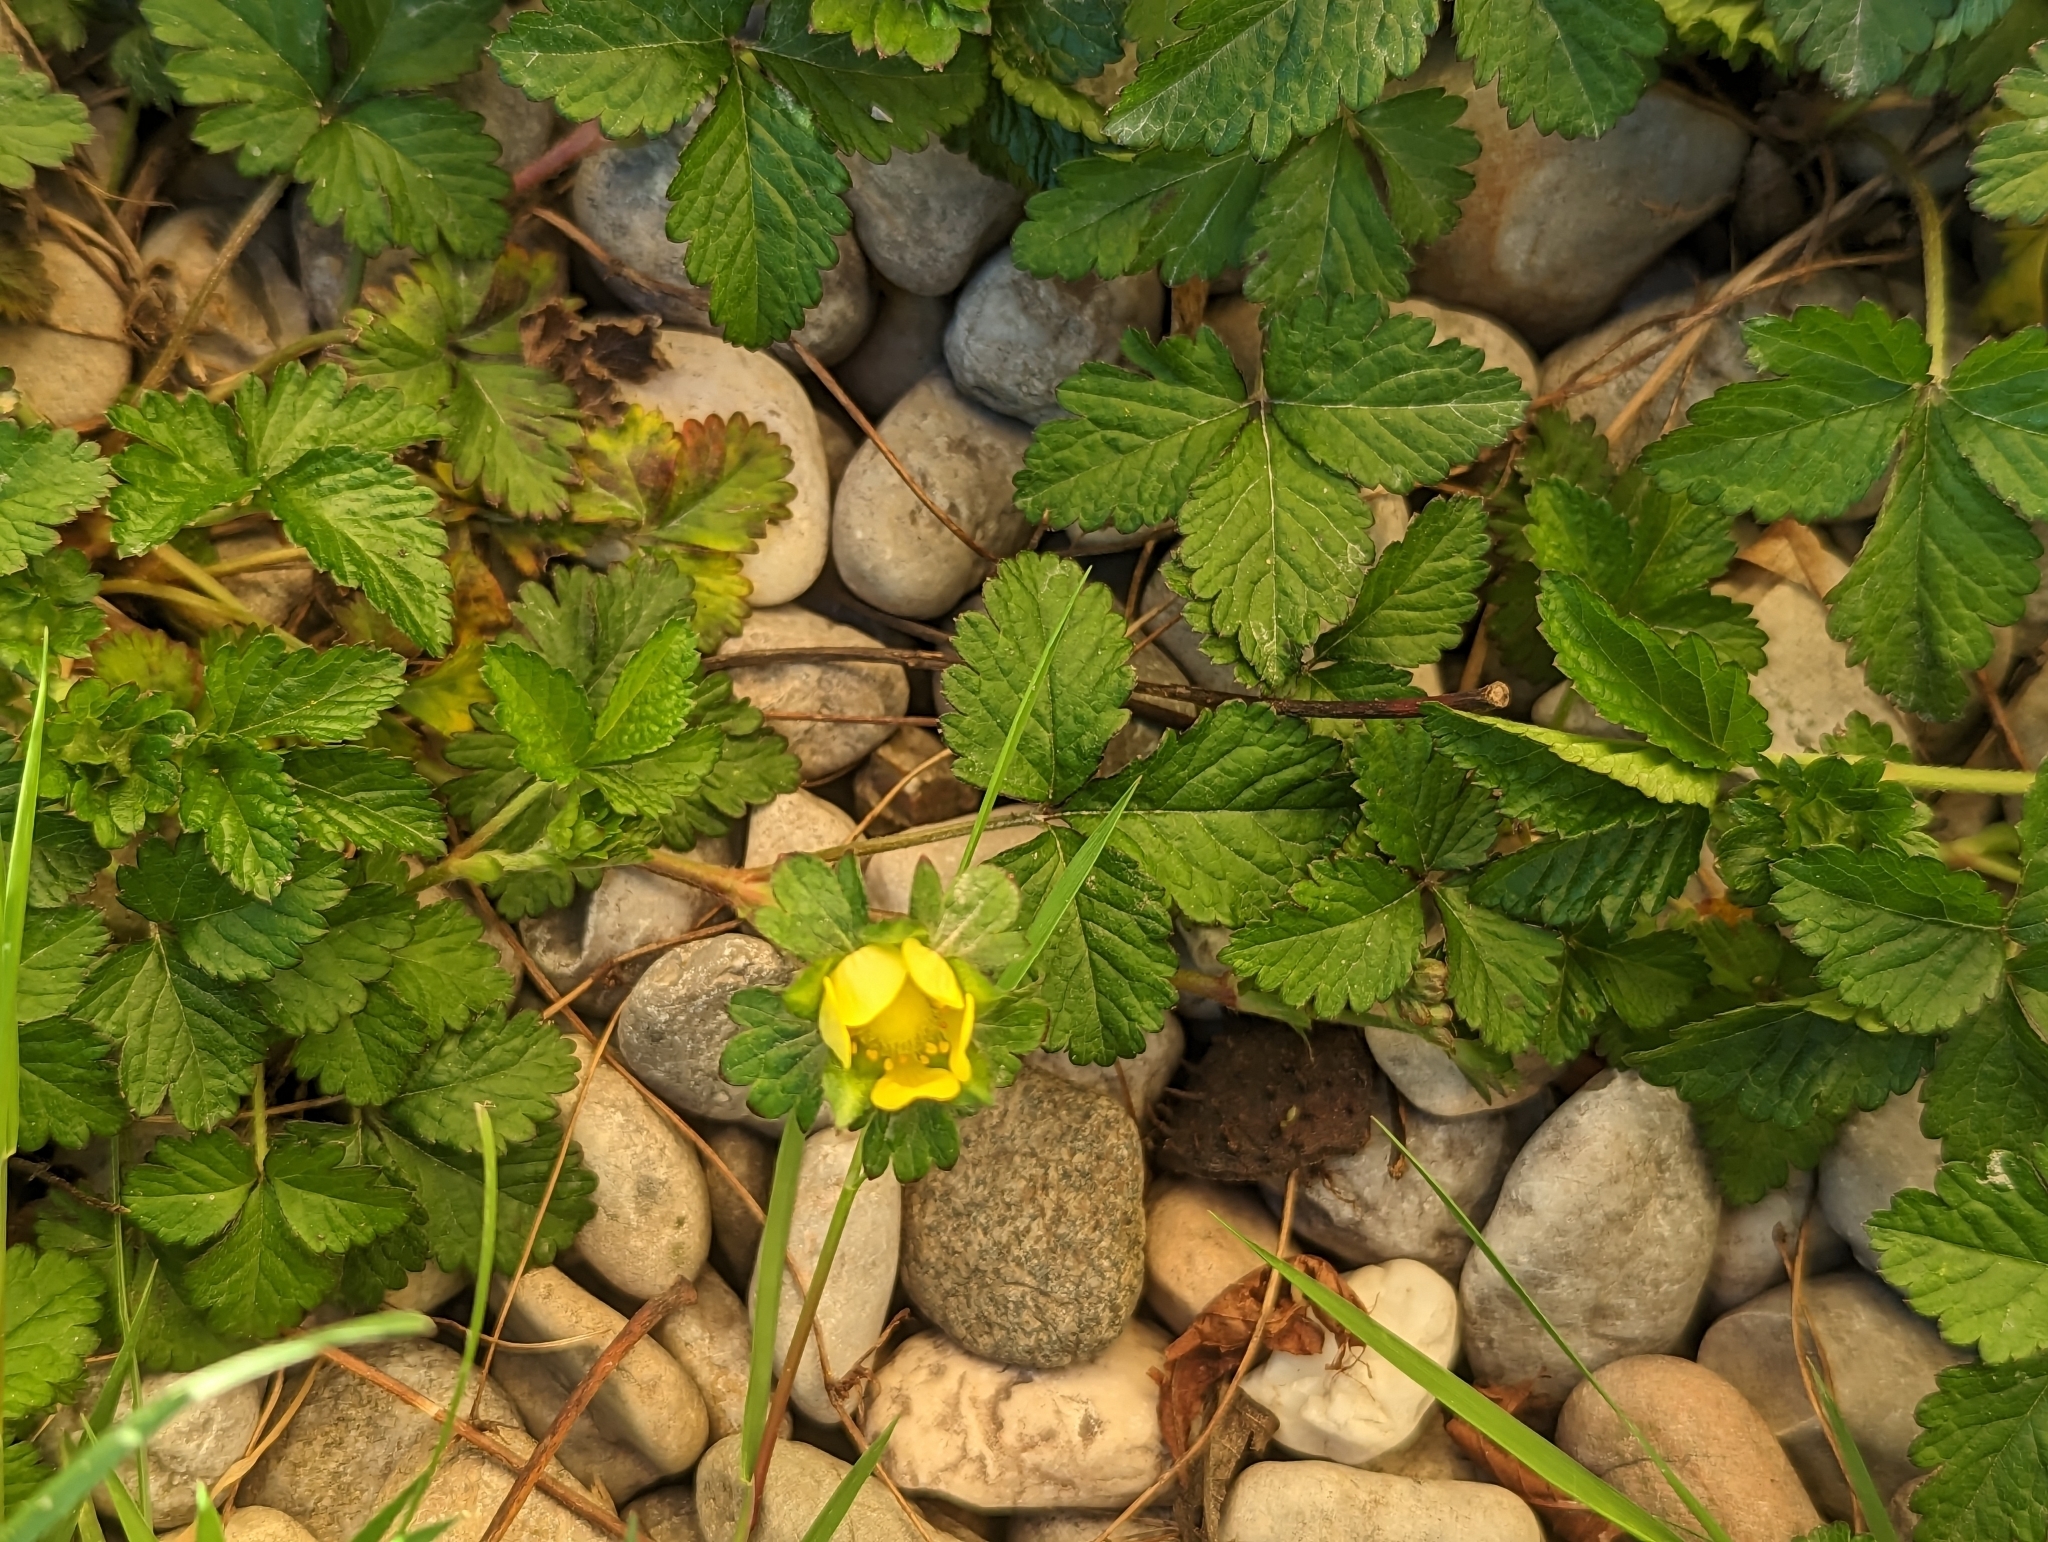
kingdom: Plantae
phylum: Tracheophyta
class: Magnoliopsida
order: Rosales
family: Rosaceae
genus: Potentilla
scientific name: Potentilla indica
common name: Yellow-flowered strawberry
